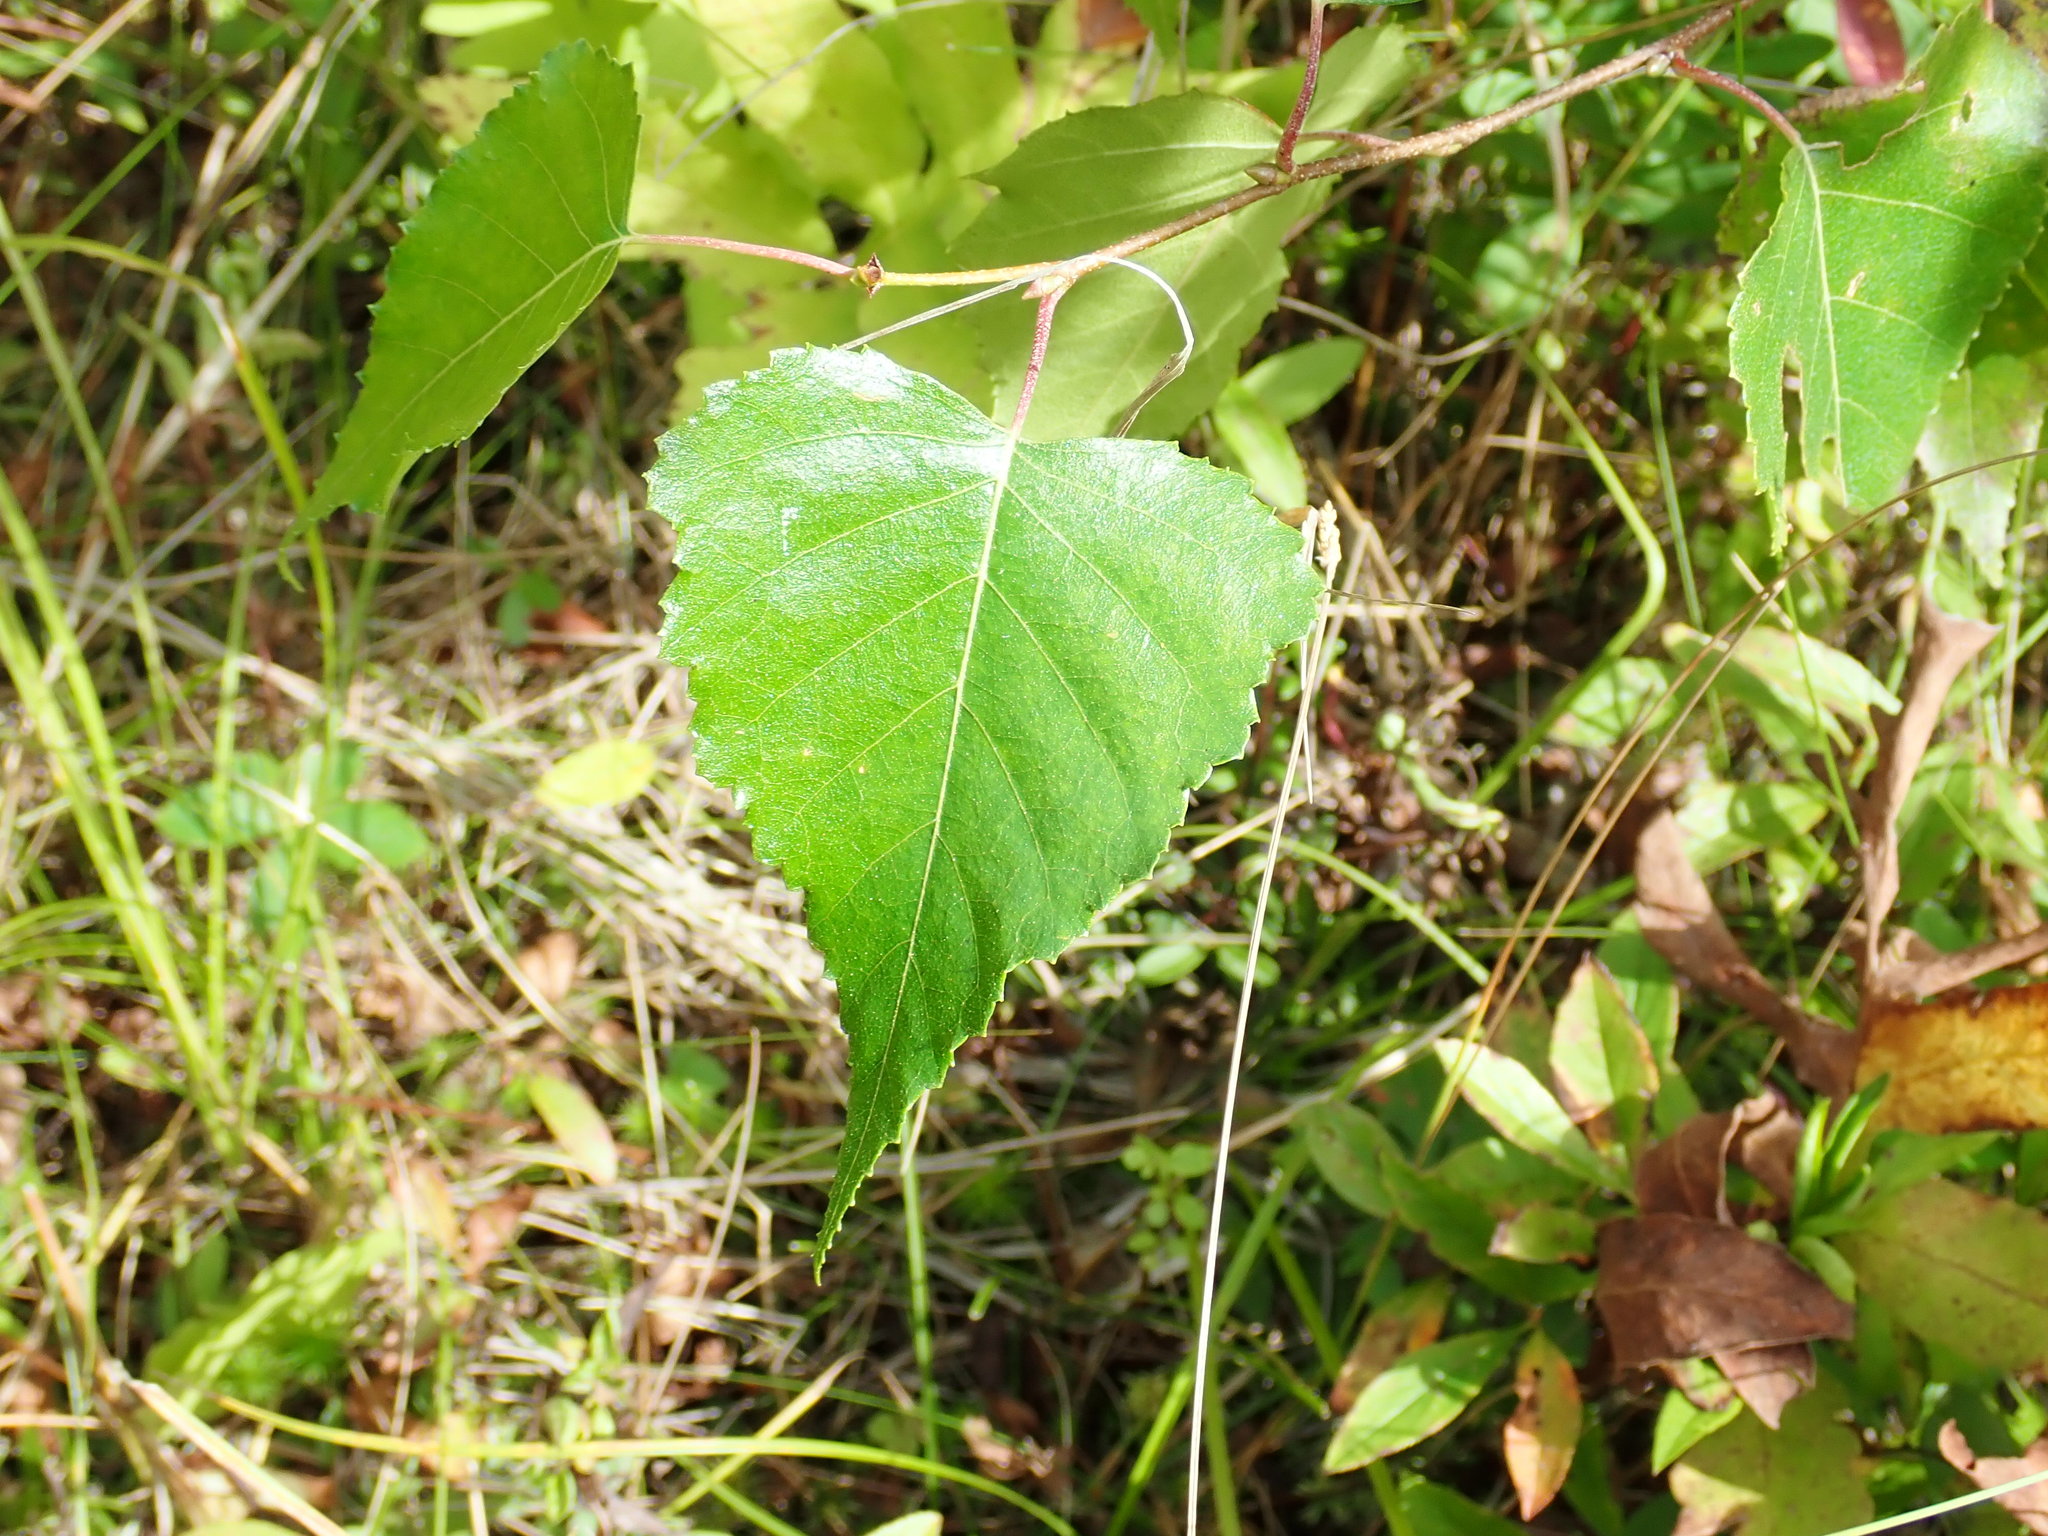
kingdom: Plantae
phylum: Tracheophyta
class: Magnoliopsida
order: Fagales
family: Betulaceae
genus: Betula
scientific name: Betula populifolia
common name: Fire birch
